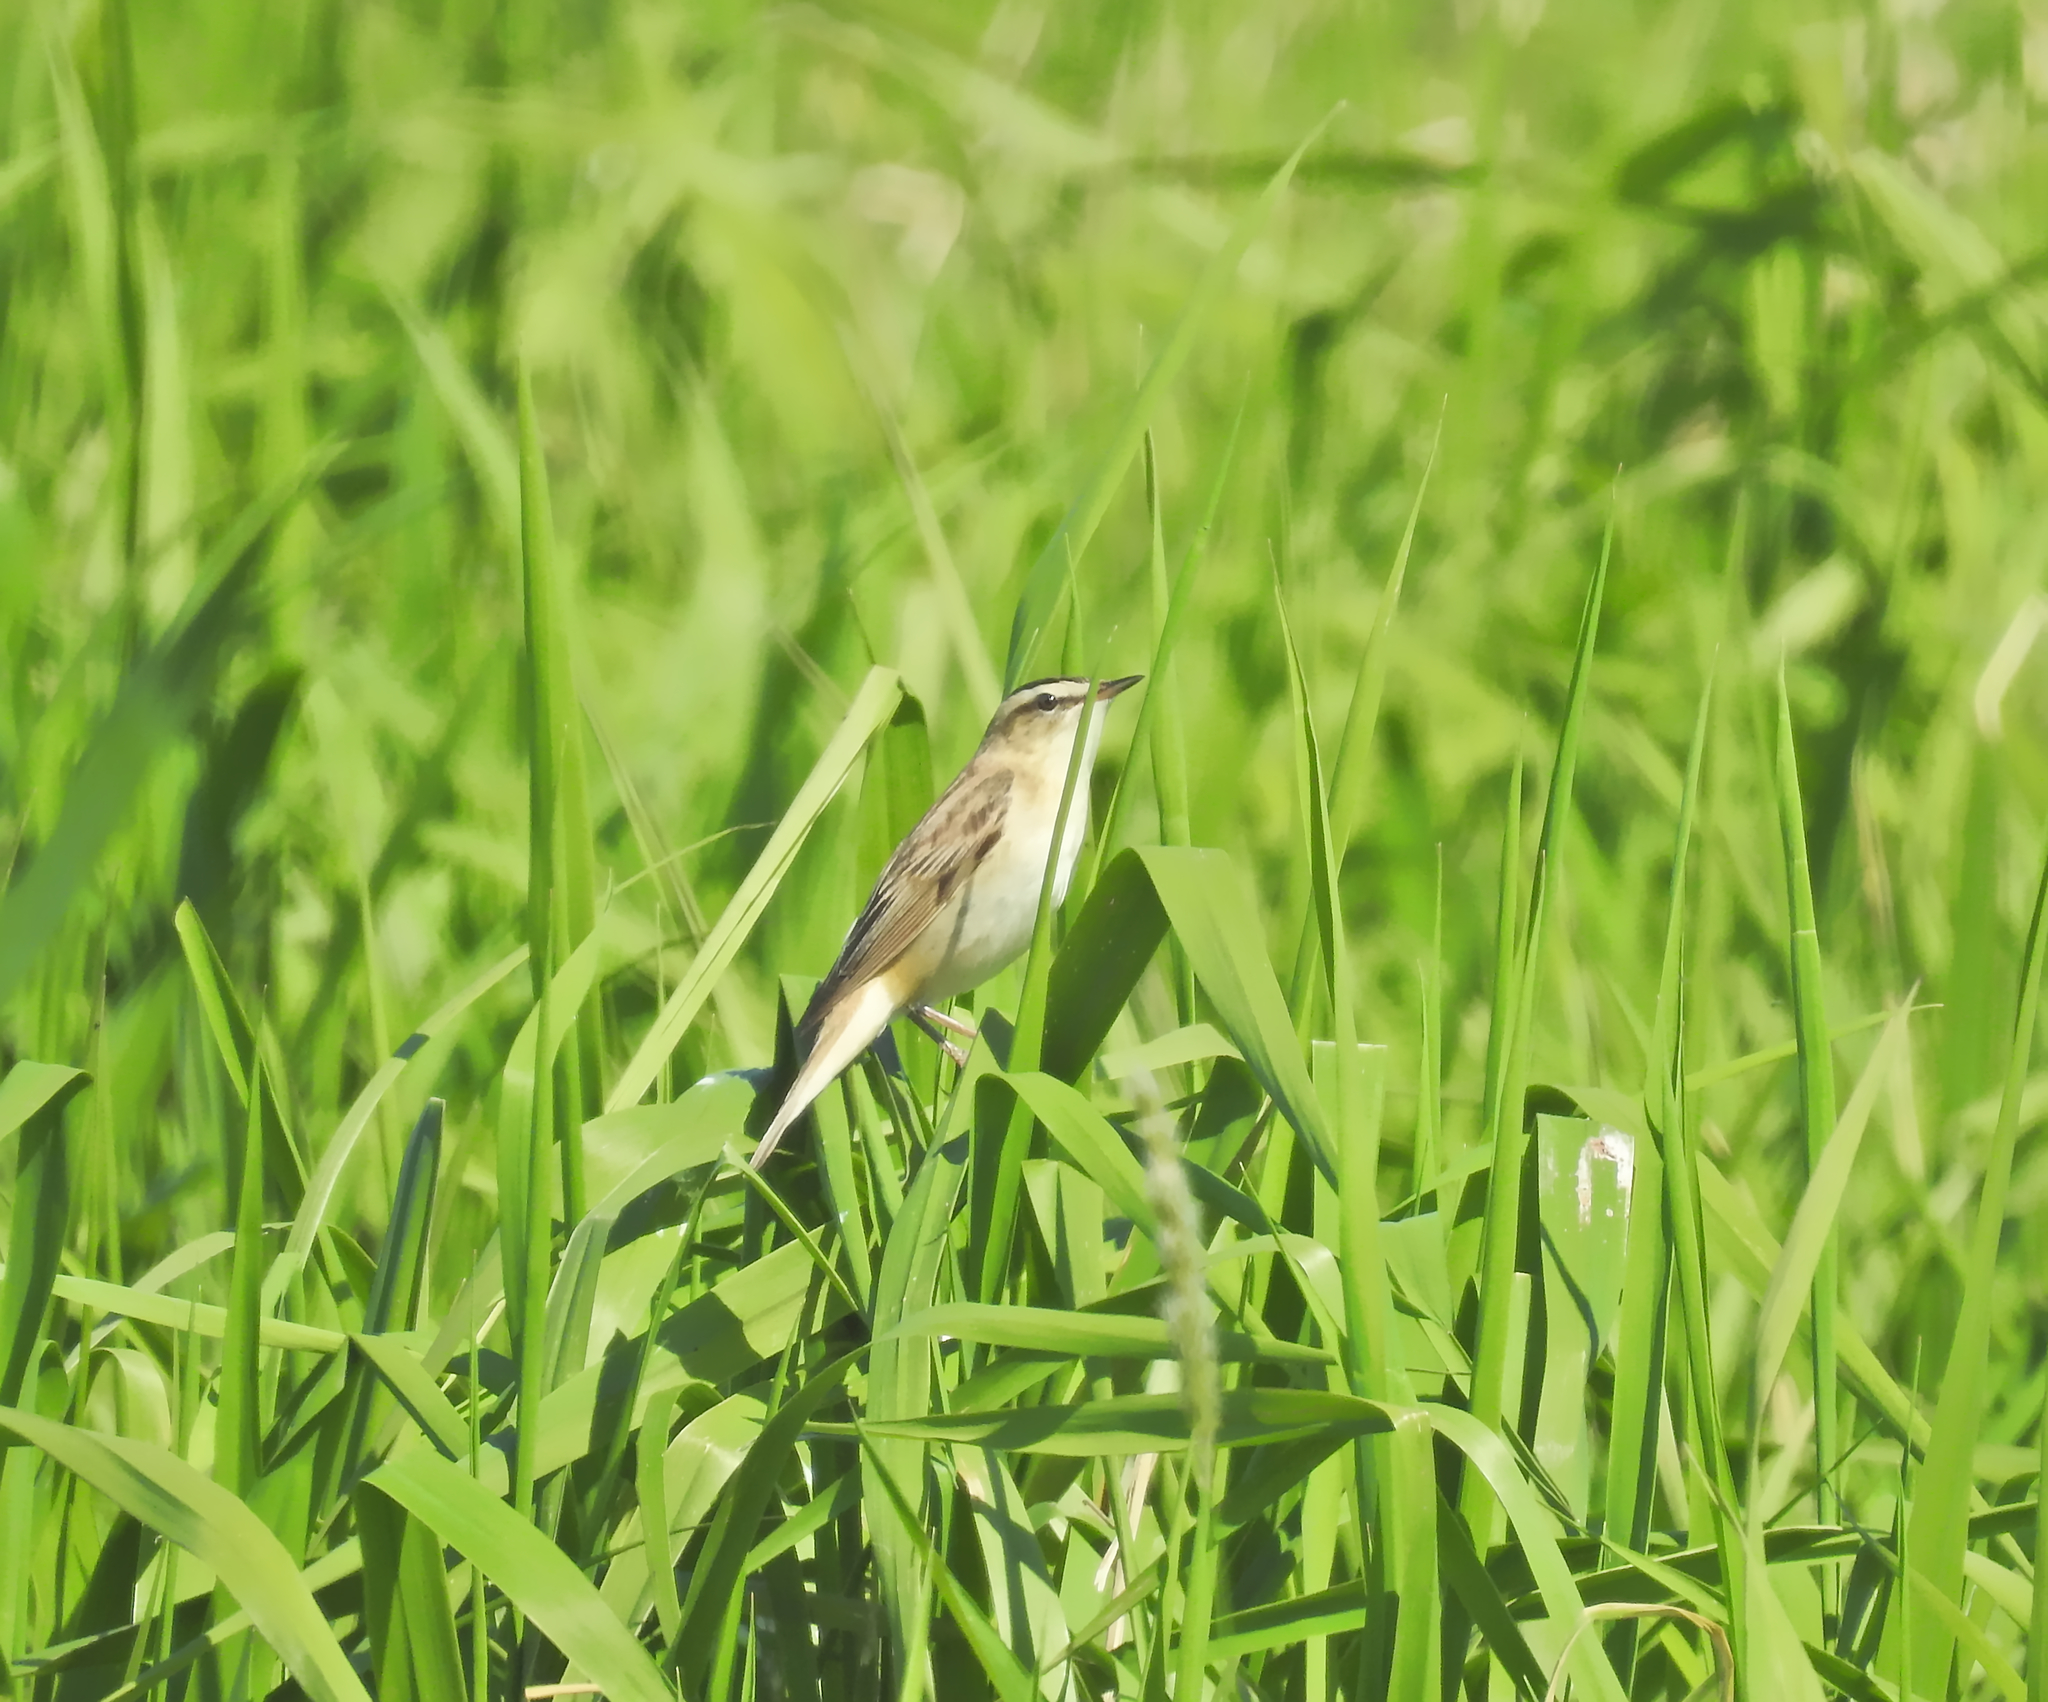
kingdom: Animalia
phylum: Chordata
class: Aves
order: Passeriformes
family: Acrocephalidae
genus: Acrocephalus
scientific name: Acrocephalus schoenobaenus
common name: Sedge warbler
